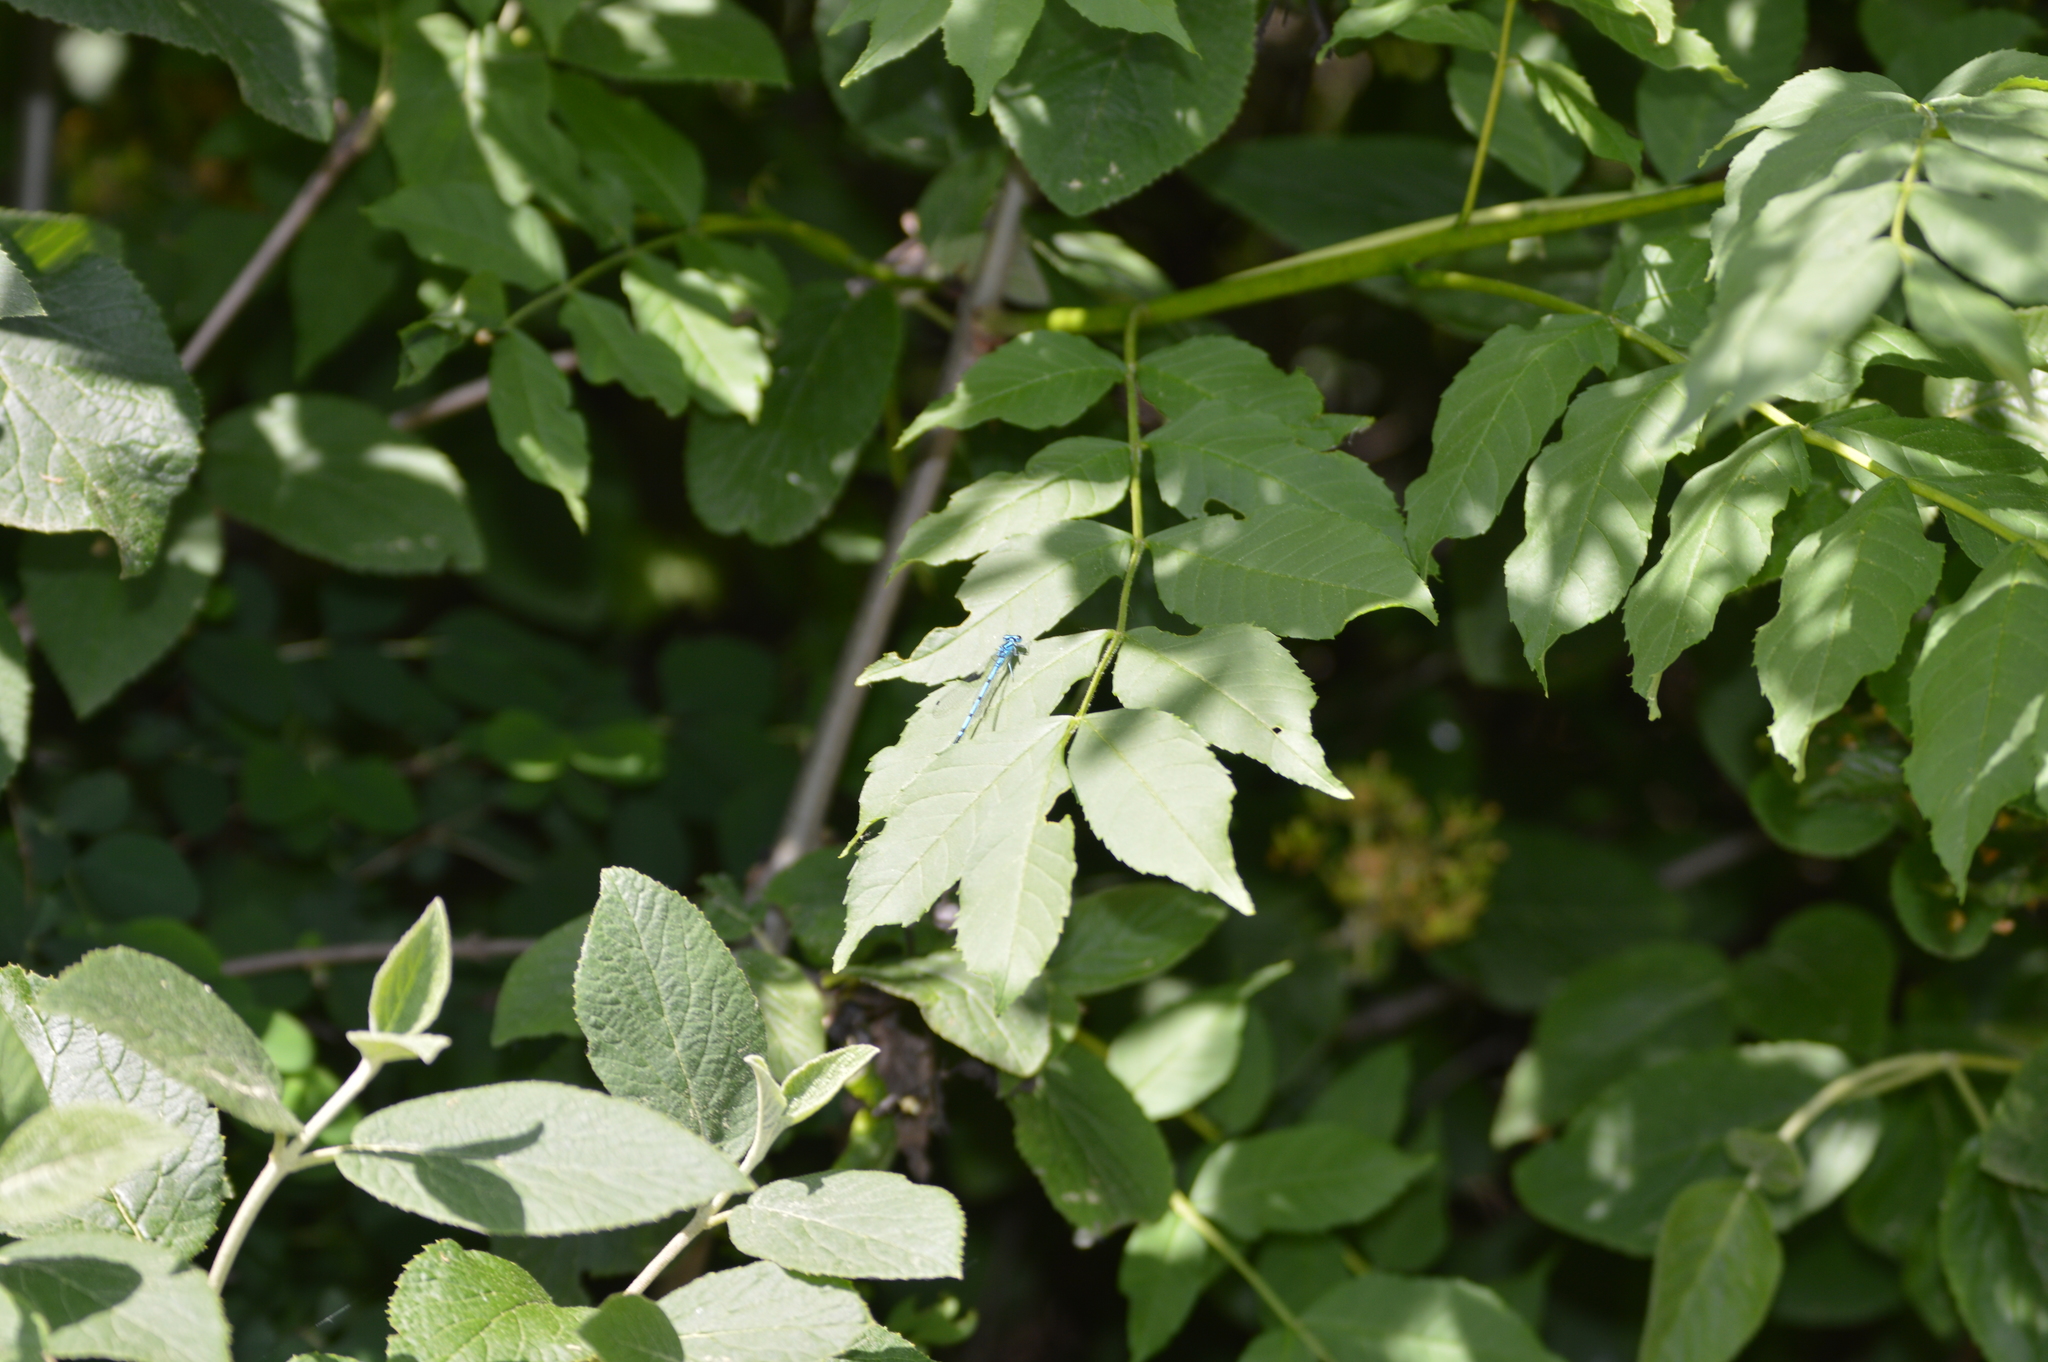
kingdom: Animalia
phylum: Arthropoda
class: Insecta
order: Odonata
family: Coenagrionidae
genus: Coenagrion
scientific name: Coenagrion puella
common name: Azure damselfly
